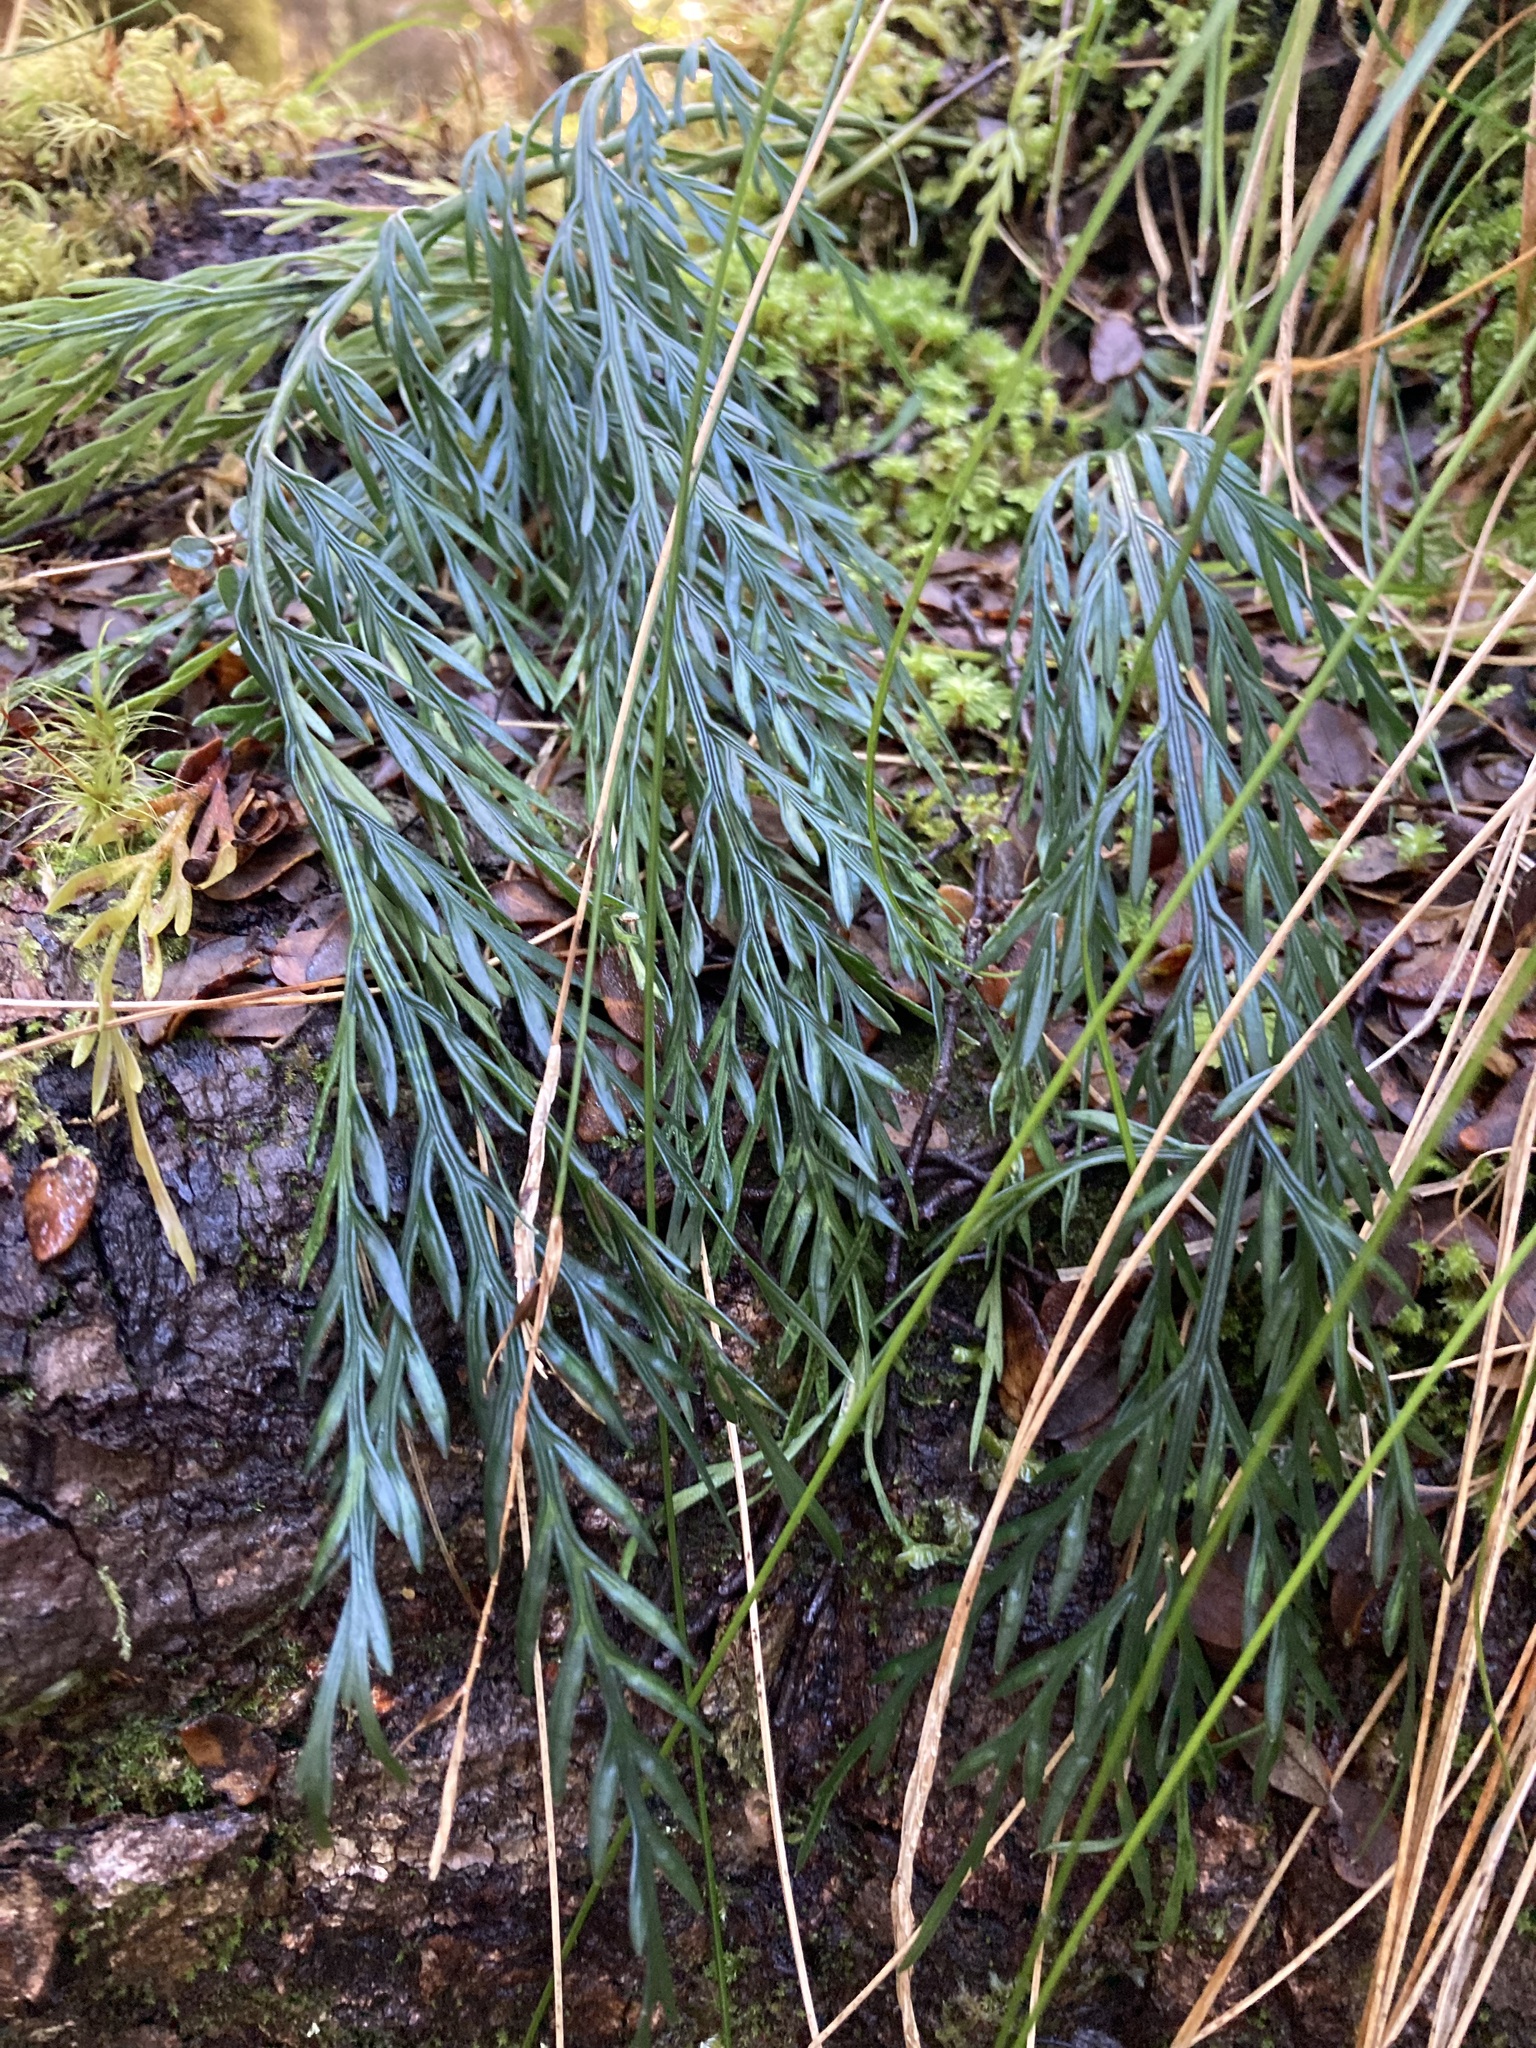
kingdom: Plantae
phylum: Tracheophyta
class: Polypodiopsida
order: Polypodiales
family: Aspleniaceae
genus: Asplenium
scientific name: Asplenium flaccidum
